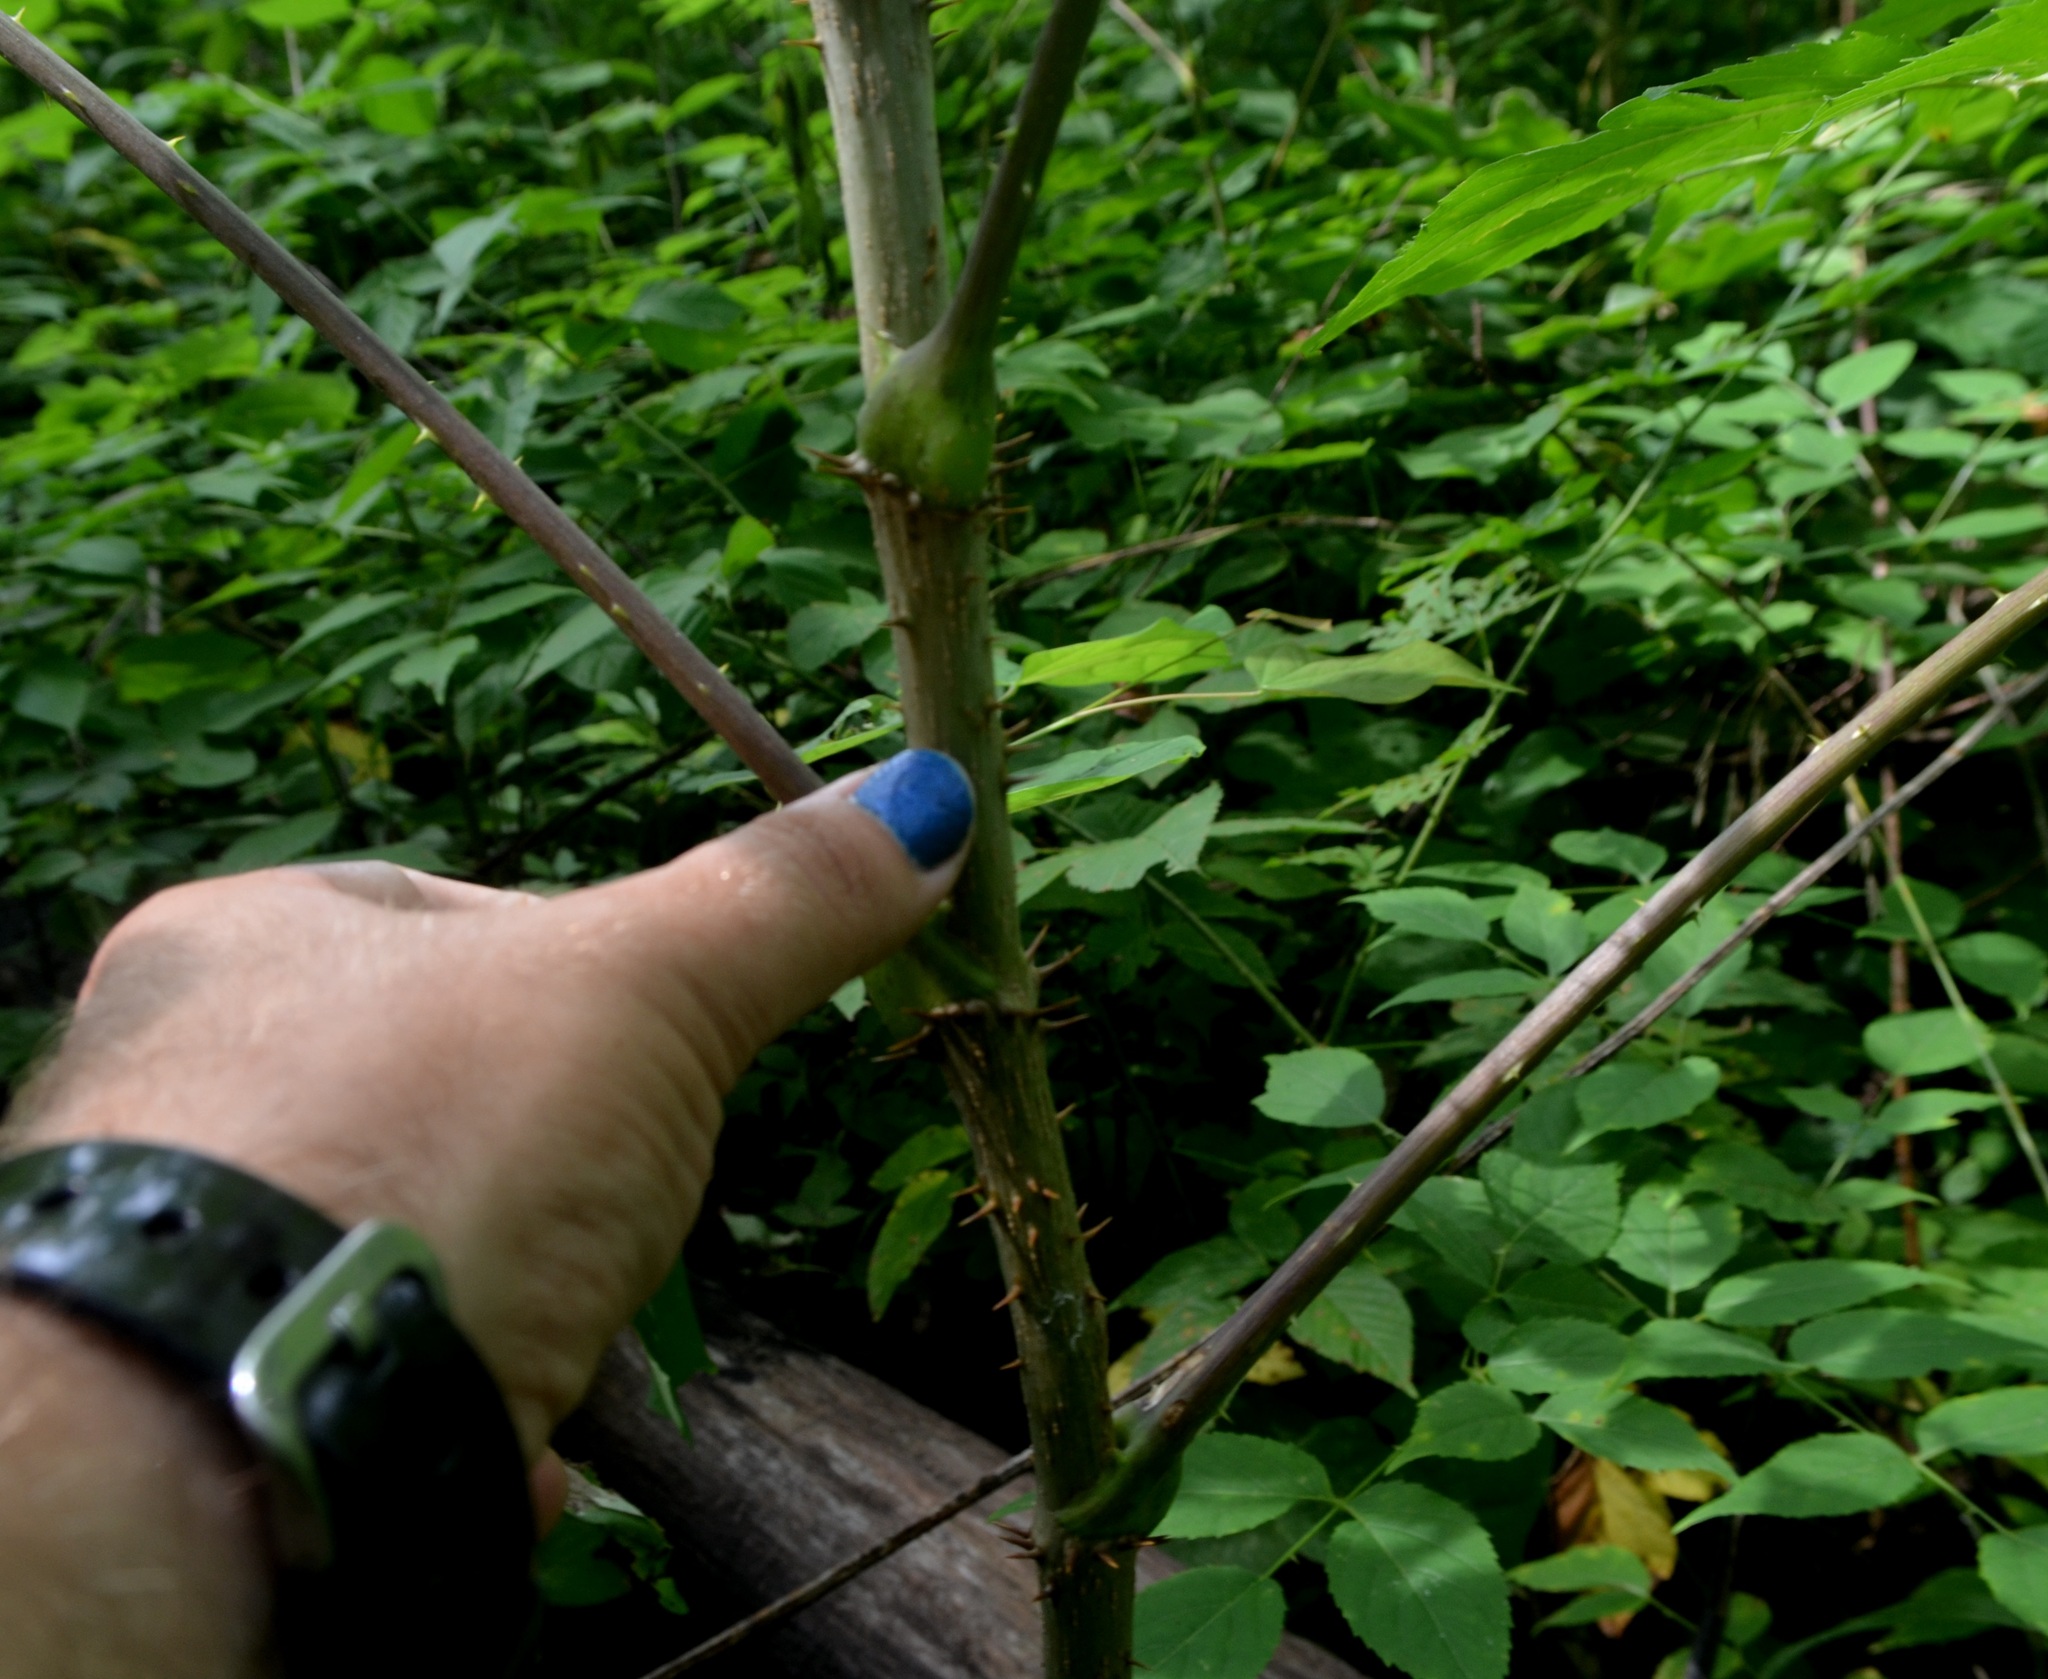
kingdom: Plantae
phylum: Tracheophyta
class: Magnoliopsida
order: Apiales
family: Araliaceae
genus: Aralia
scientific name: Aralia spinosa
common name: Hercules'-club
